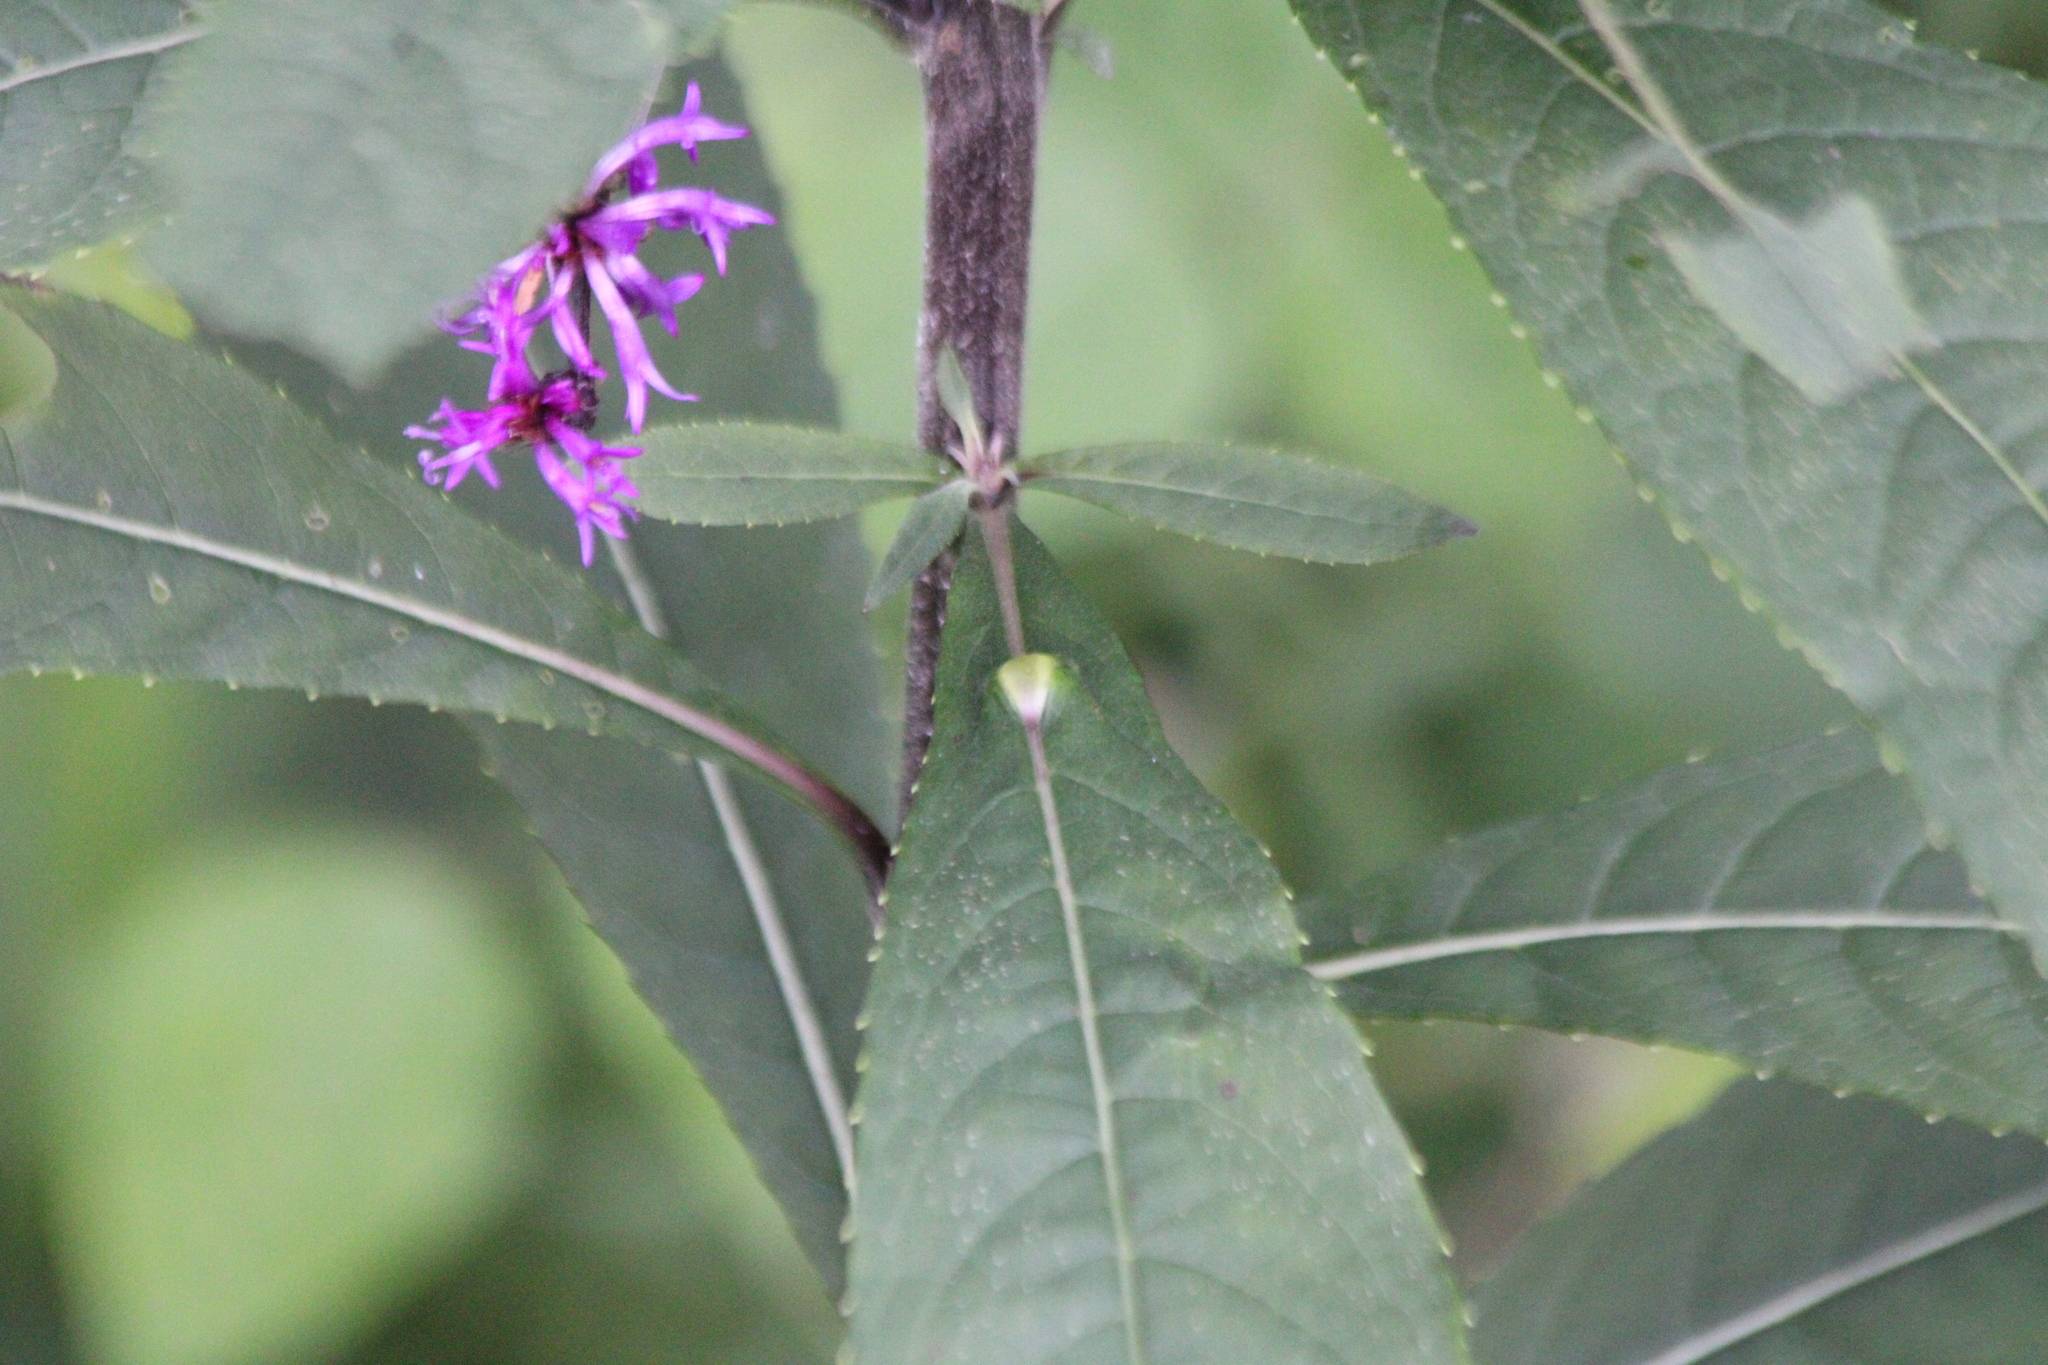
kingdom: Animalia
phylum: Arthropoda
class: Insecta
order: Diptera
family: Cecidomyiidae
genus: Neolasioptera
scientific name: Neolasioptera vernoniae
